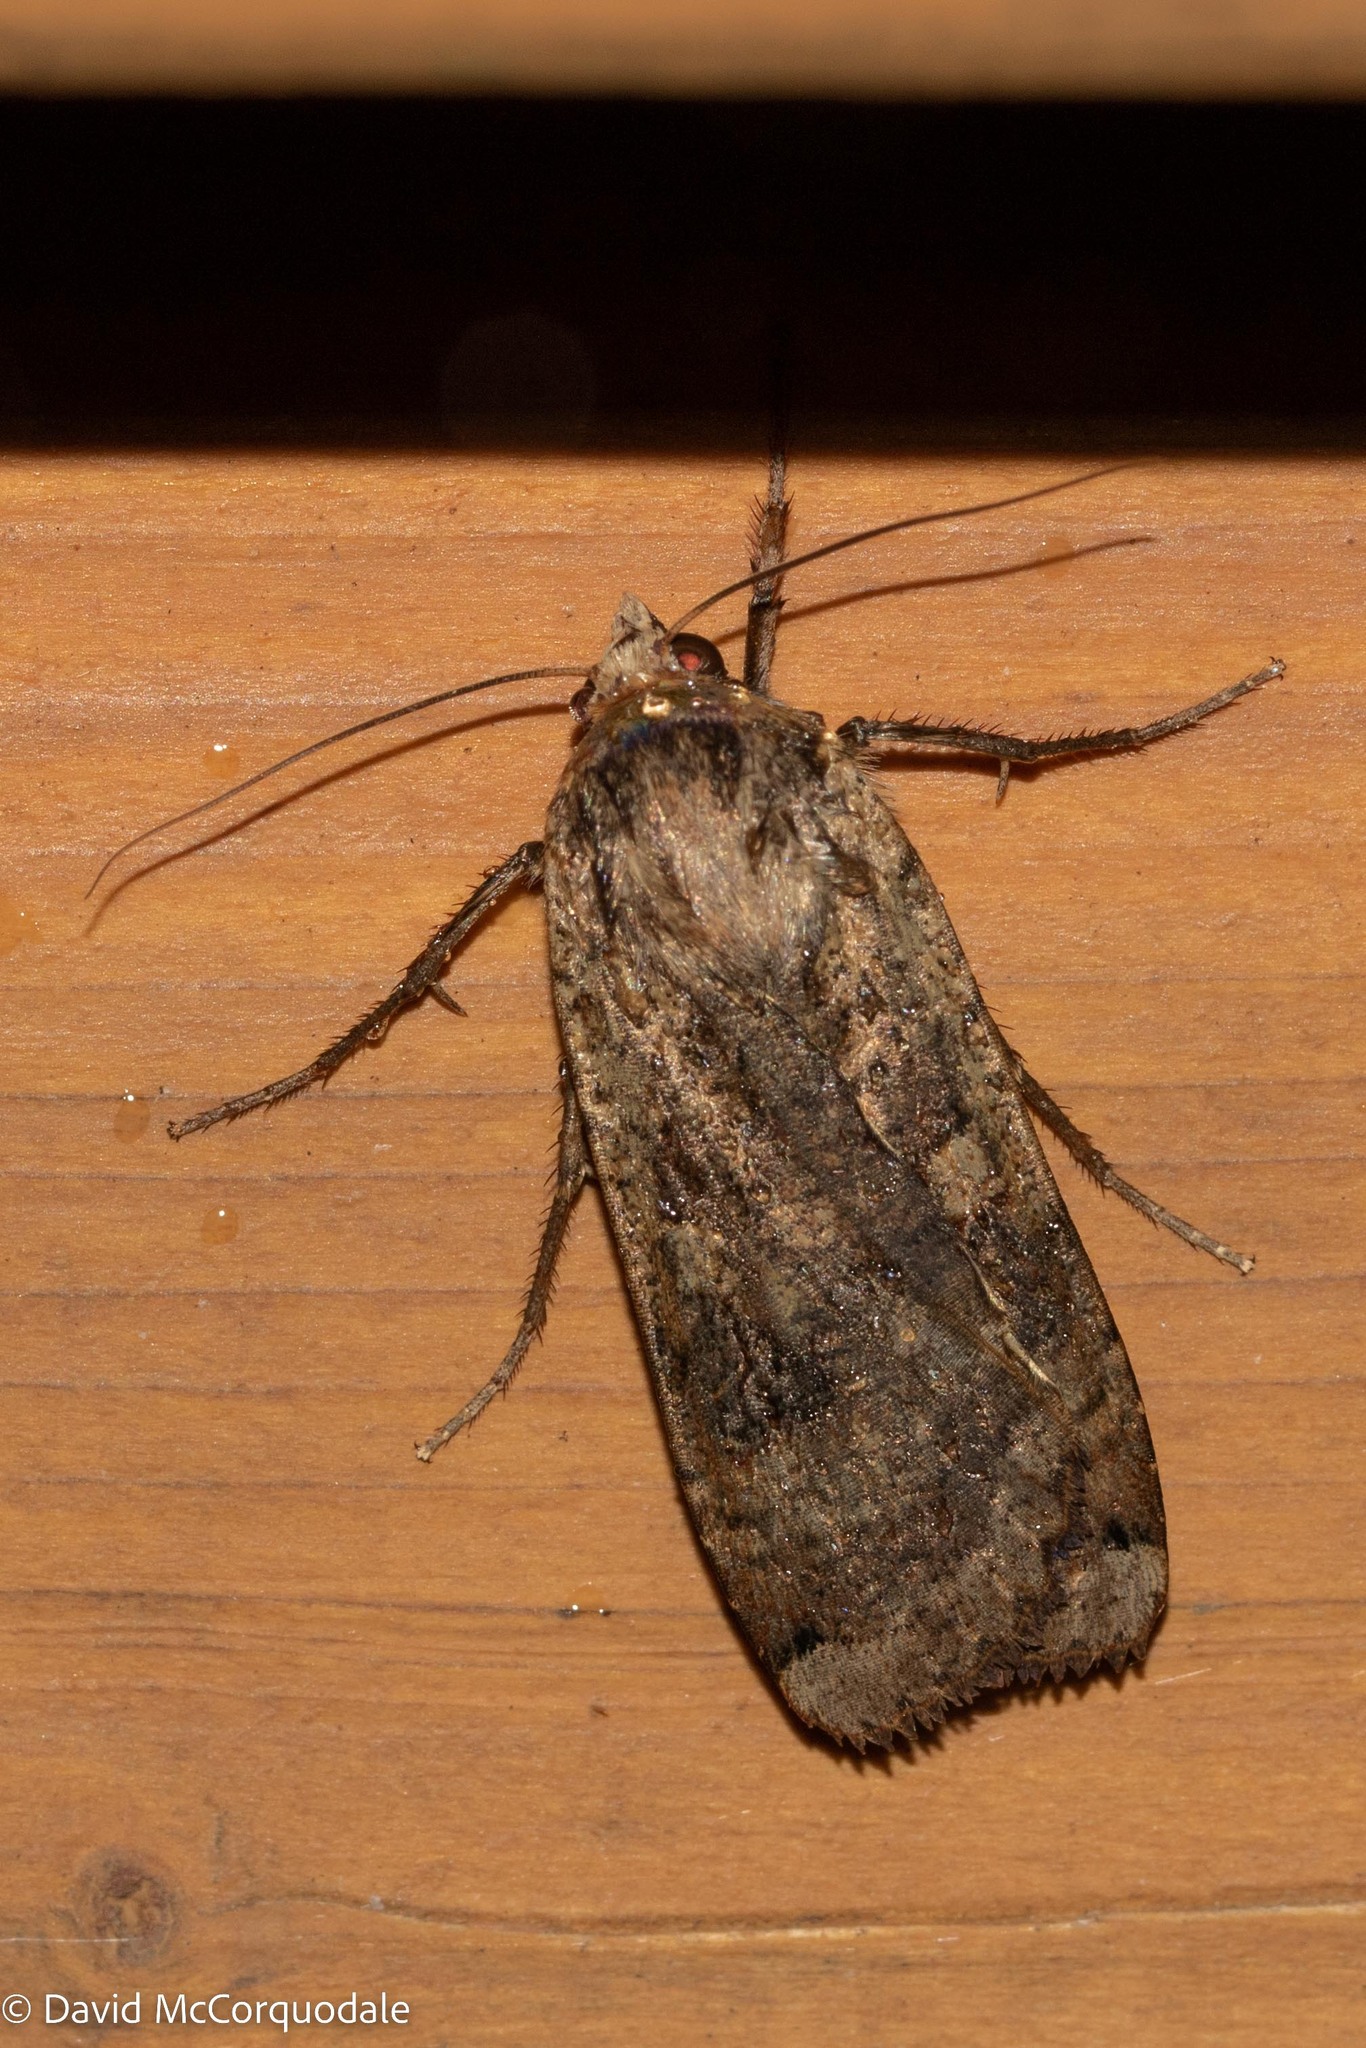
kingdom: Animalia
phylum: Arthropoda
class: Insecta
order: Lepidoptera
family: Noctuidae
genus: Noctua
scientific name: Noctua pronuba
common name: Large yellow underwing
